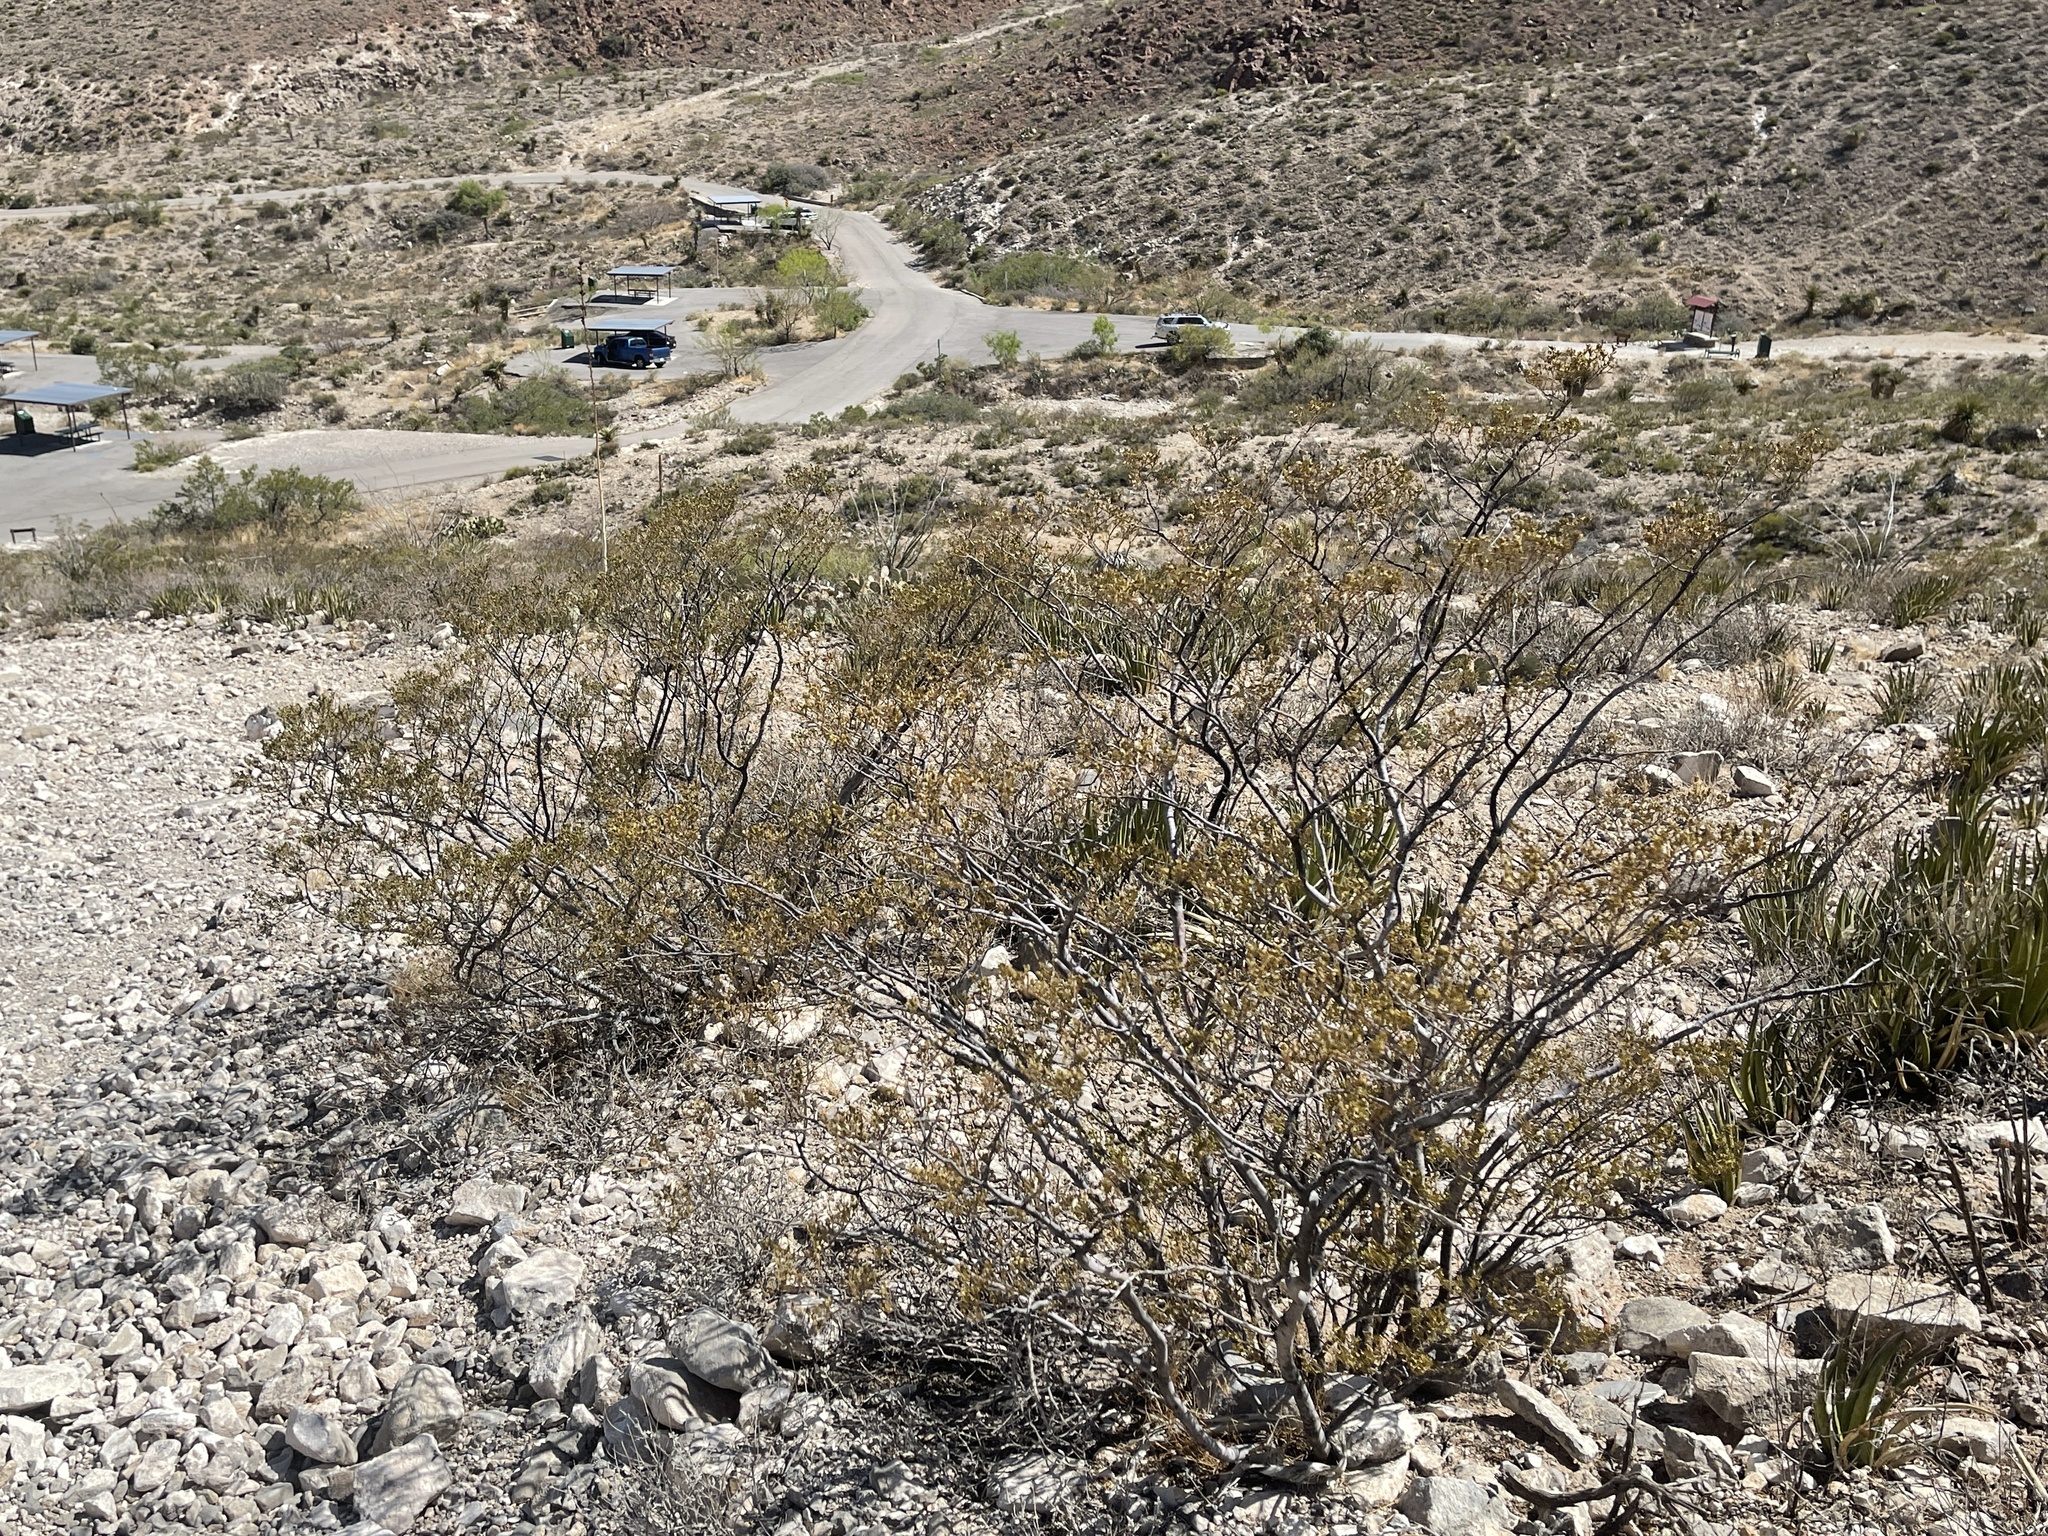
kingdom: Plantae
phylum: Tracheophyta
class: Magnoliopsida
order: Zygophyllales
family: Zygophyllaceae
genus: Larrea
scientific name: Larrea tridentata
